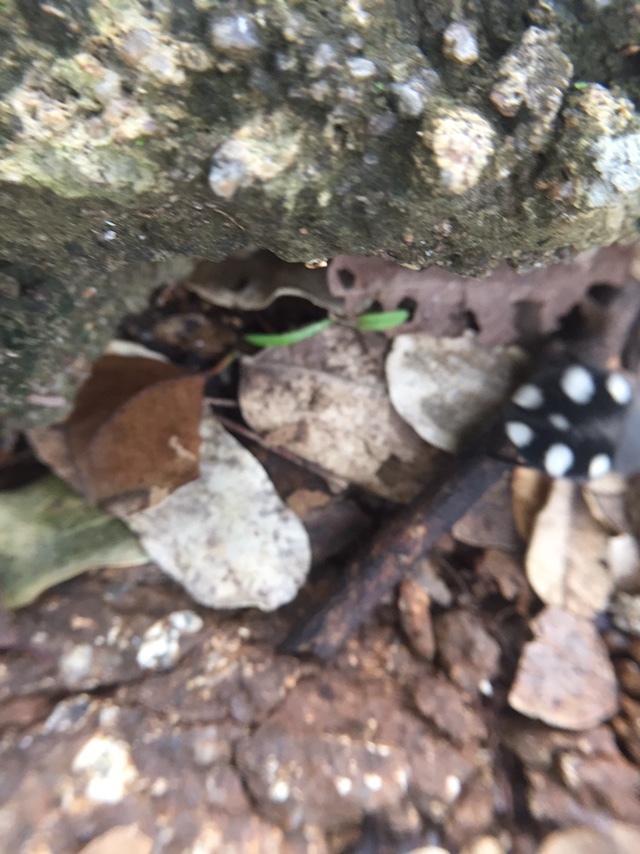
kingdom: Animalia
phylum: Arthropoda
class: Insecta
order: Blattodea
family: Corydiidae
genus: Therea
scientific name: Therea petiveriana
